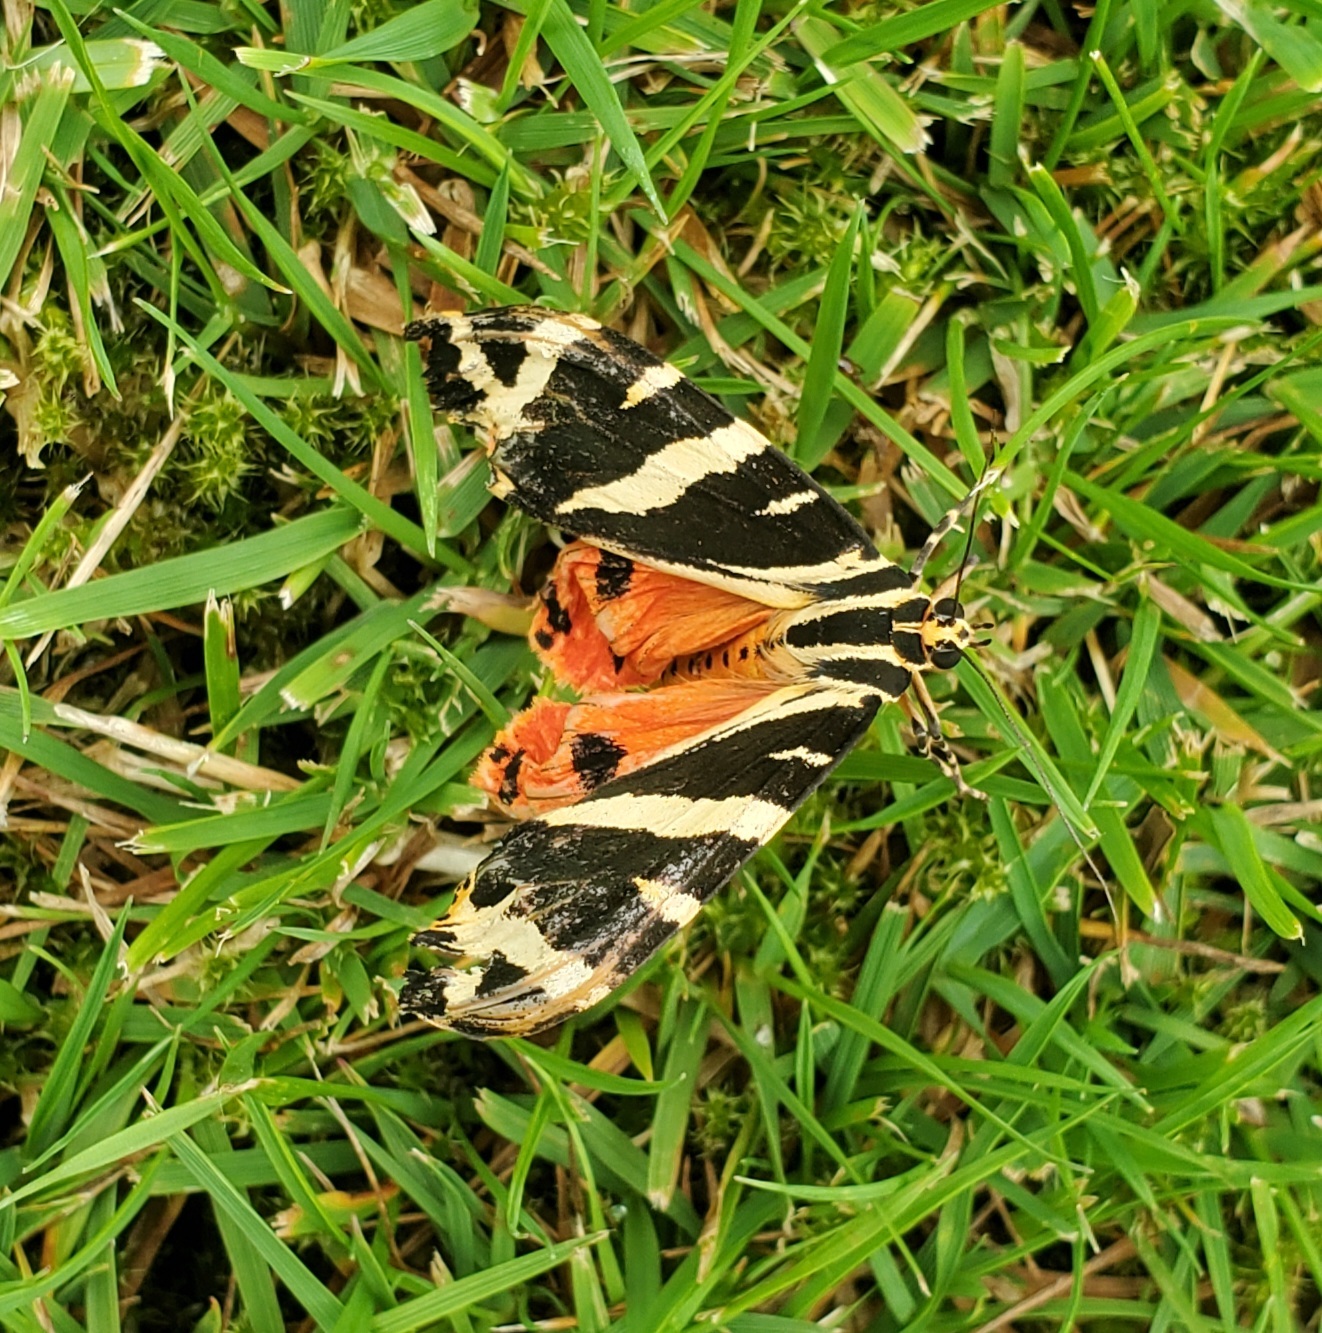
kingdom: Animalia
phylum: Arthropoda
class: Insecta
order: Lepidoptera
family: Erebidae
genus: Euplagia
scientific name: Euplagia quadripunctaria
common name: Jersey tiger
